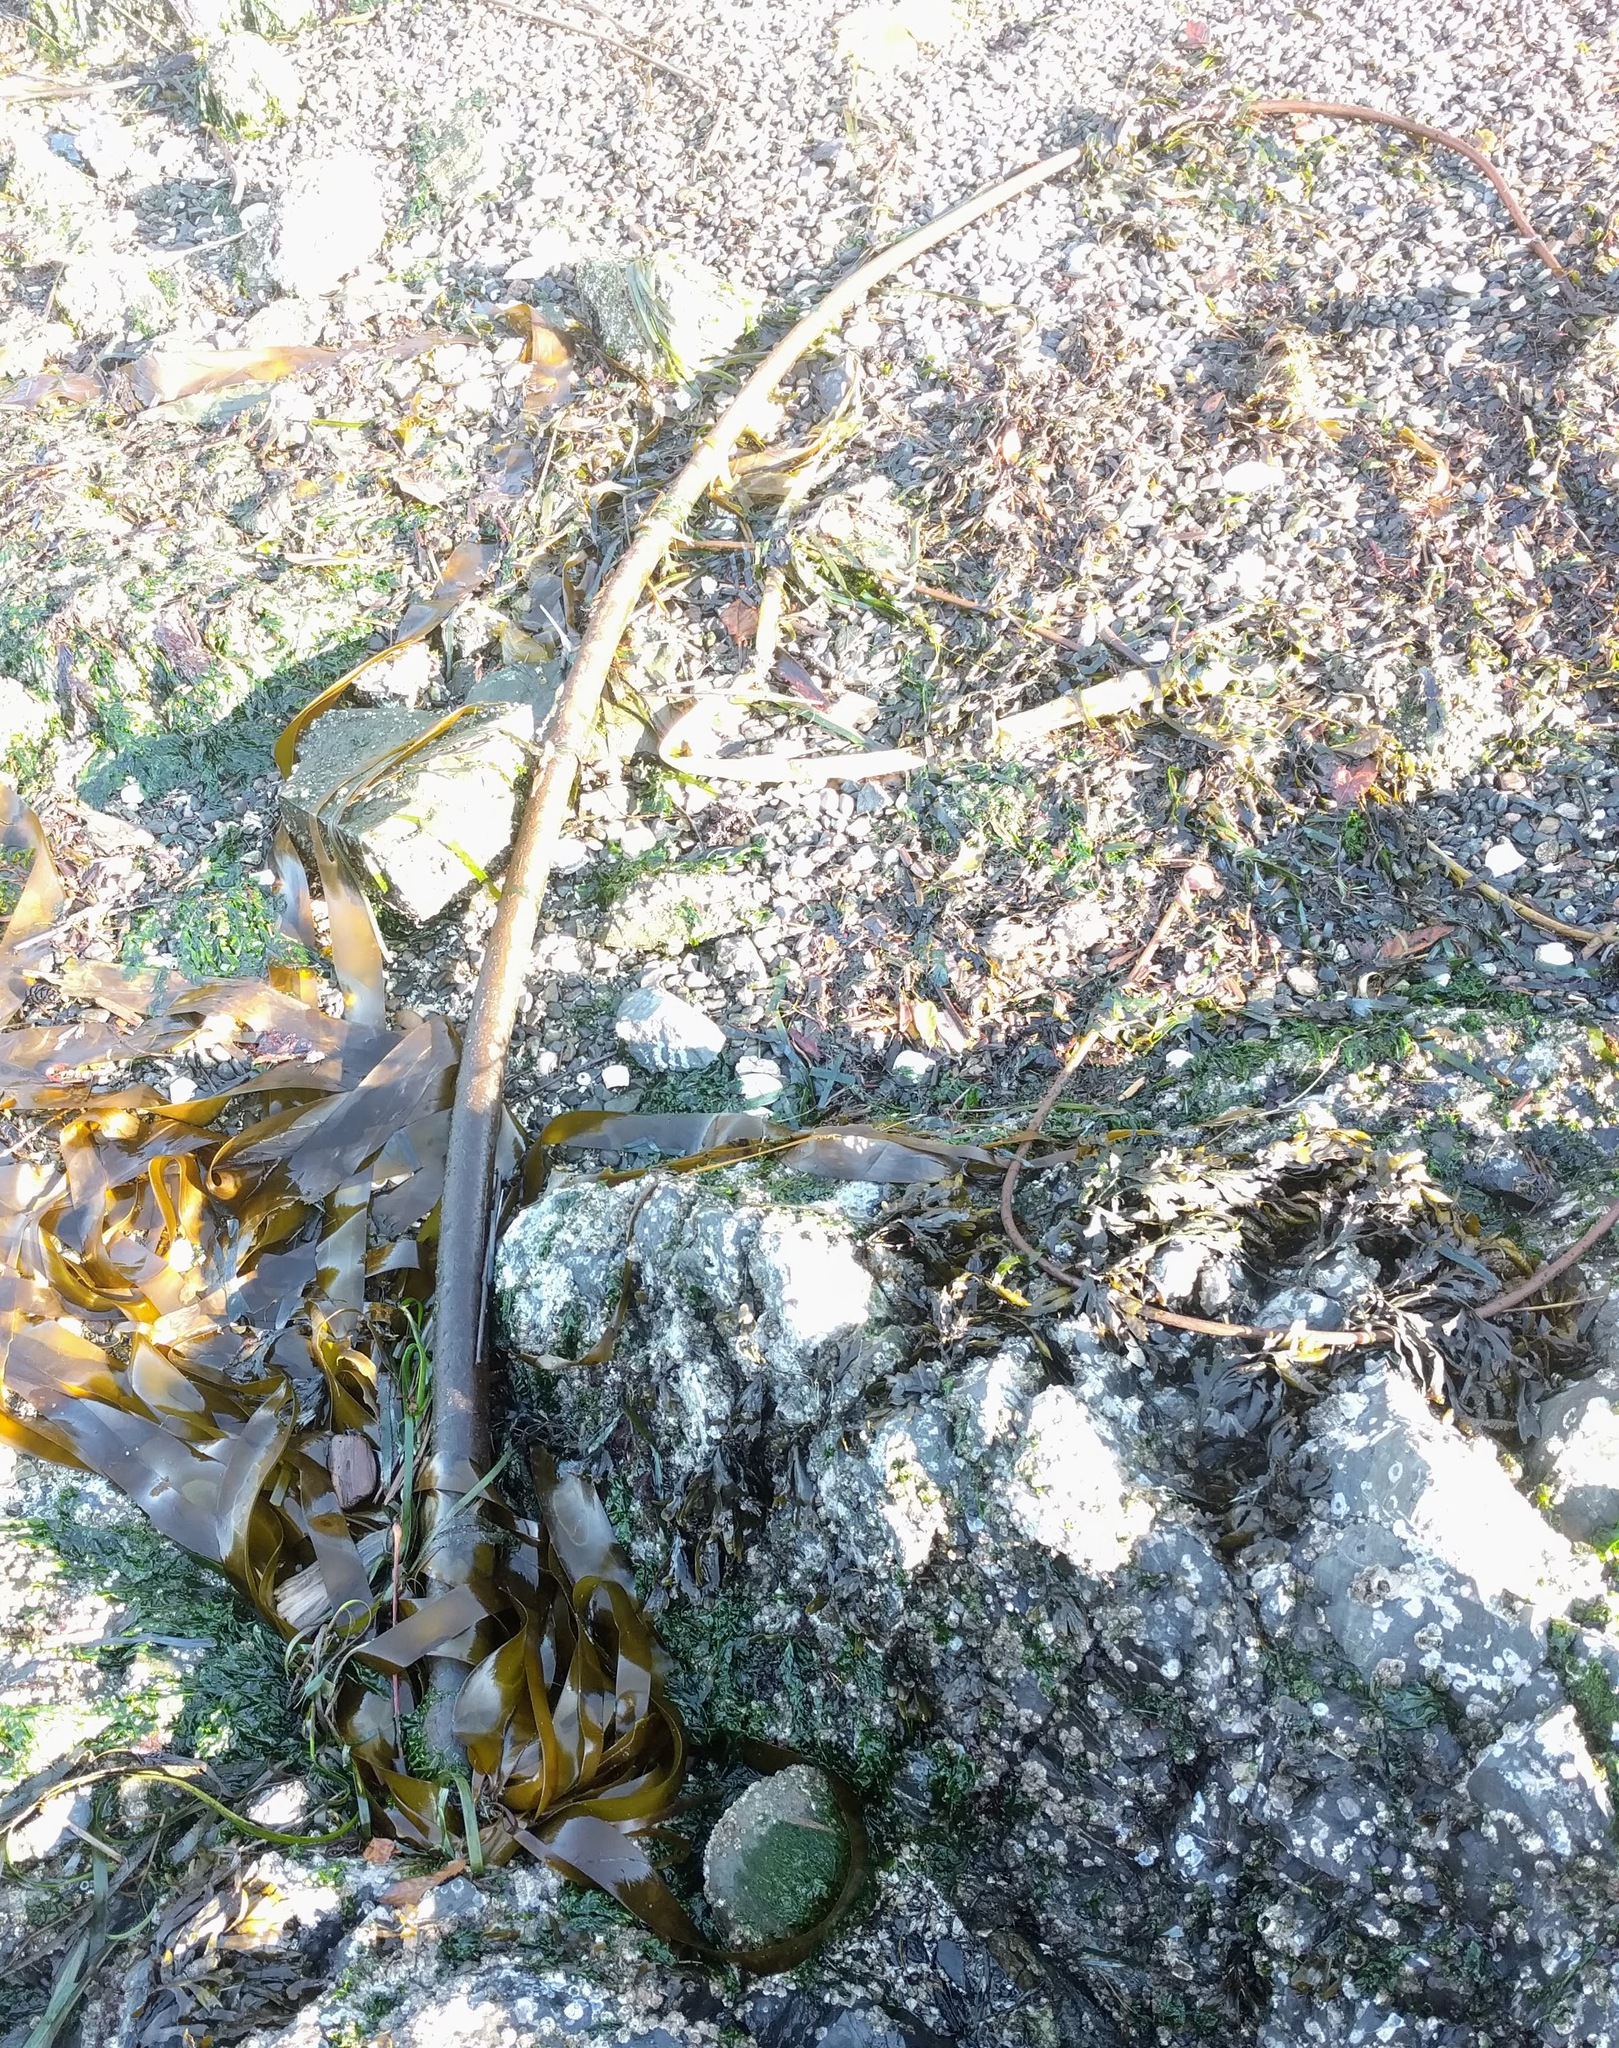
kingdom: Chromista
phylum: Ochrophyta
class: Phaeophyceae
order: Laminariales
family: Laminariaceae
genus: Nereocystis
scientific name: Nereocystis luetkeana
